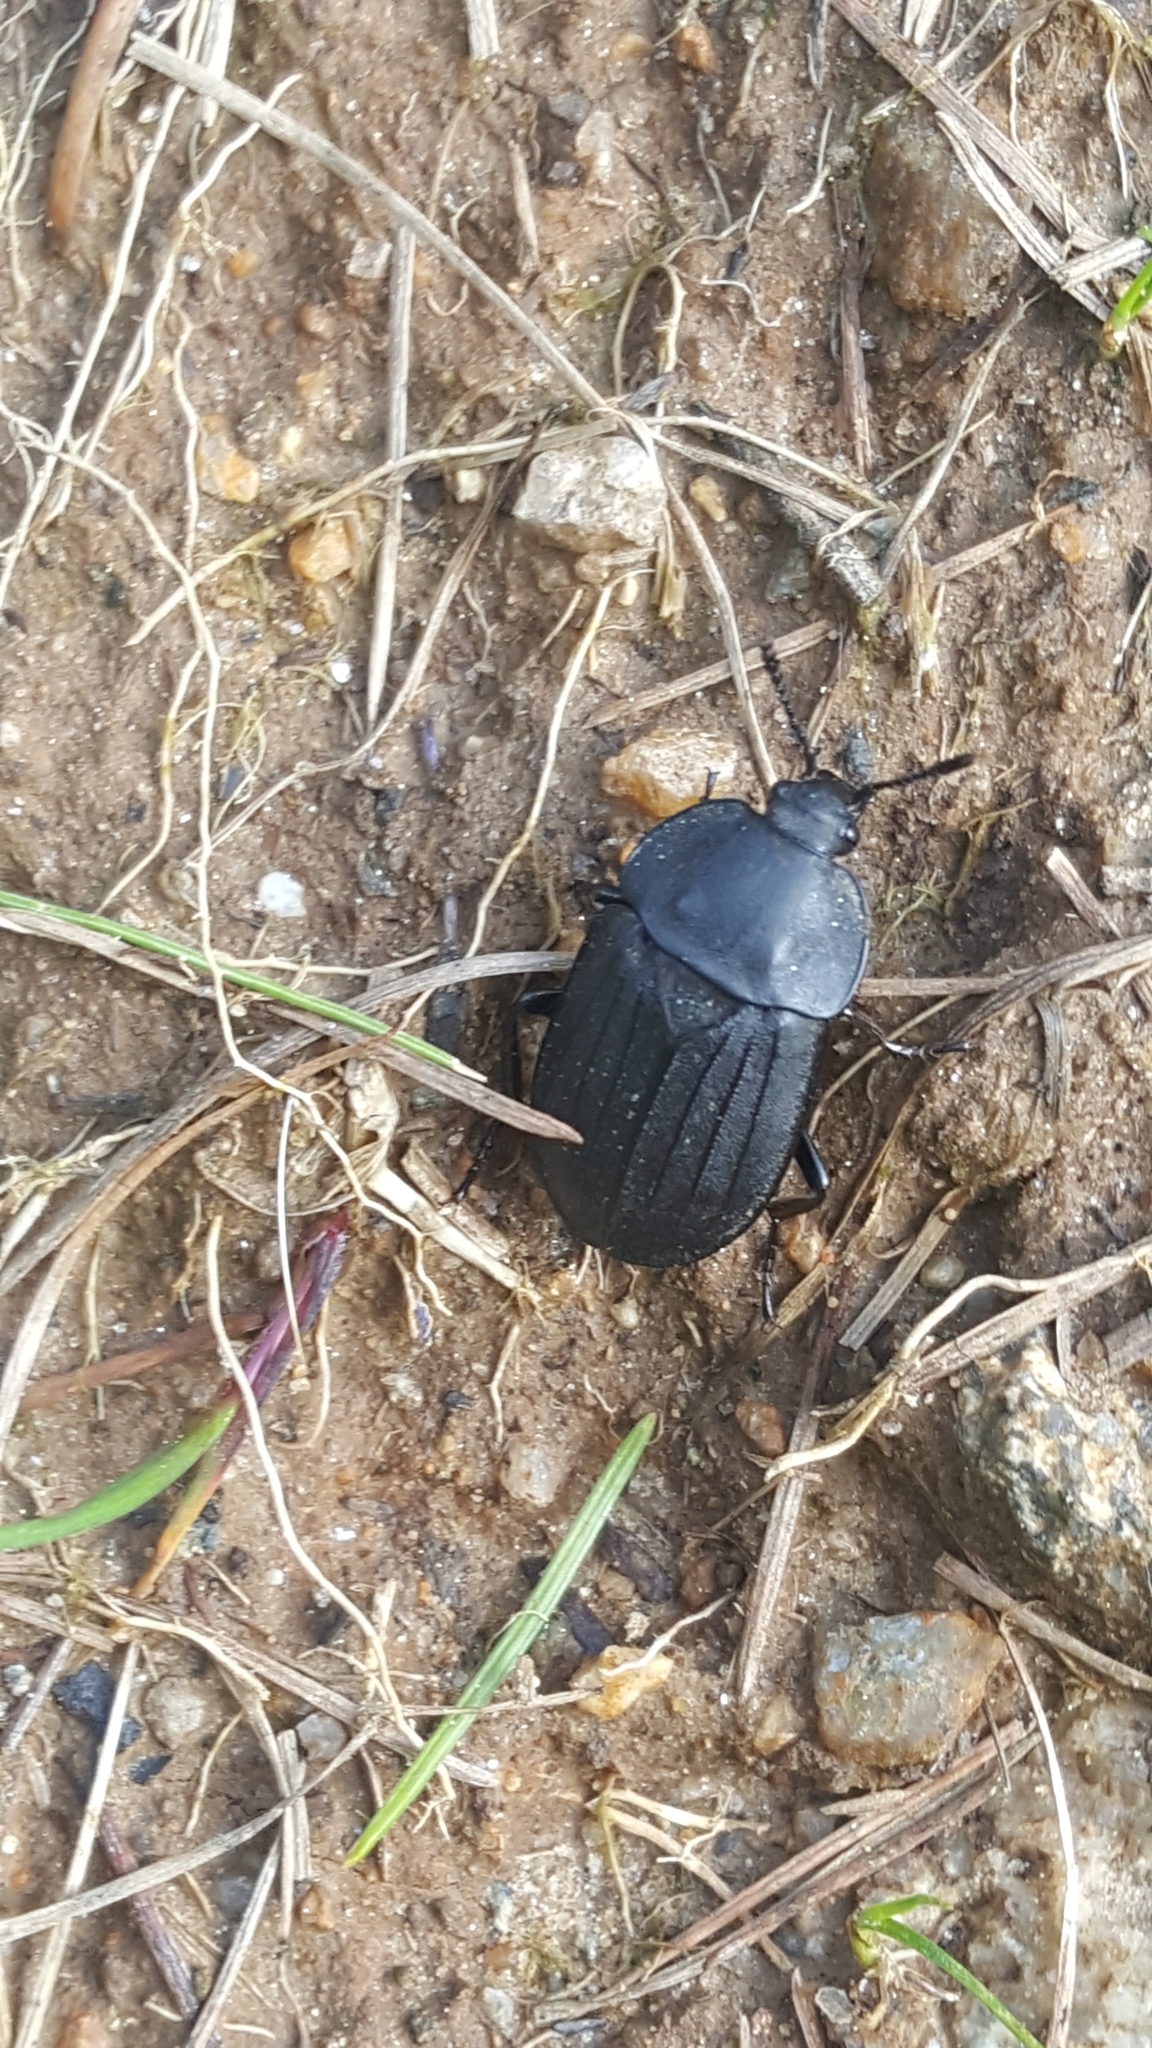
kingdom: Animalia
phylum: Arthropoda
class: Insecta
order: Coleoptera
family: Staphylinidae
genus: Silpha
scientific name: Silpha tristis
